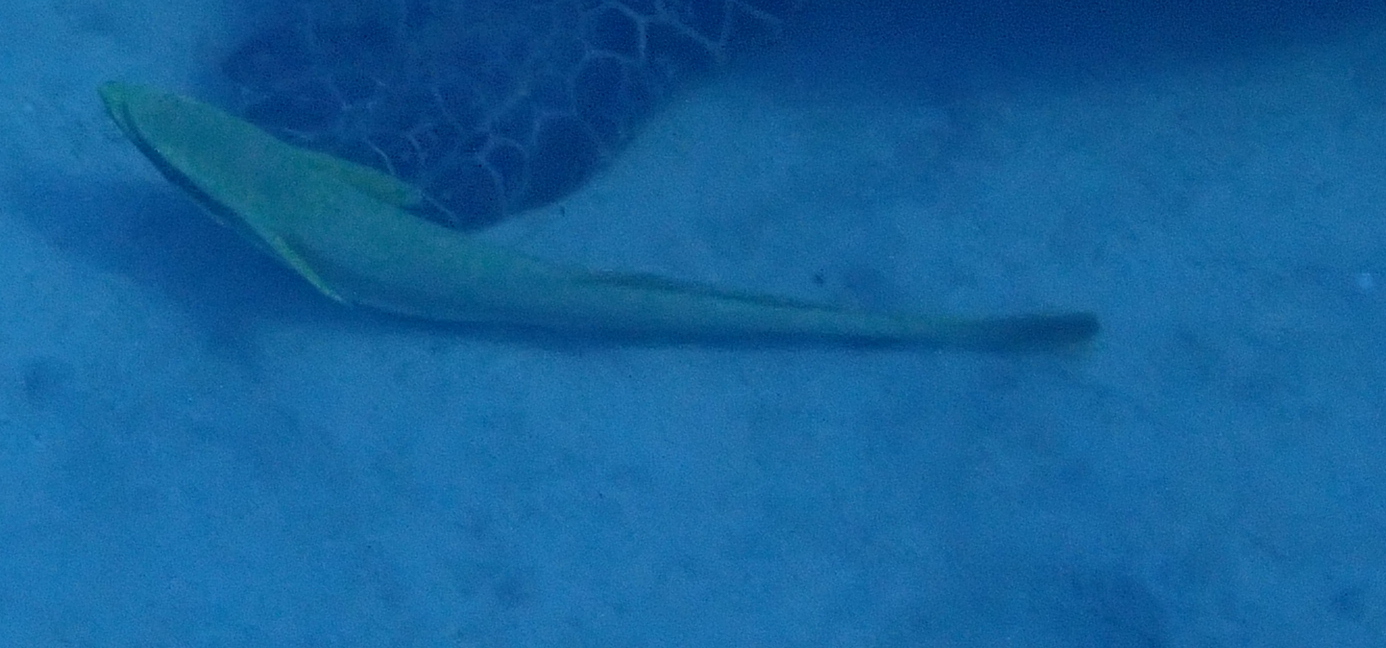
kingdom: Animalia
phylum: Chordata
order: Perciformes
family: Echeneidae
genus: Echeneis
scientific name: Echeneis naucrates
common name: Sharksucker
